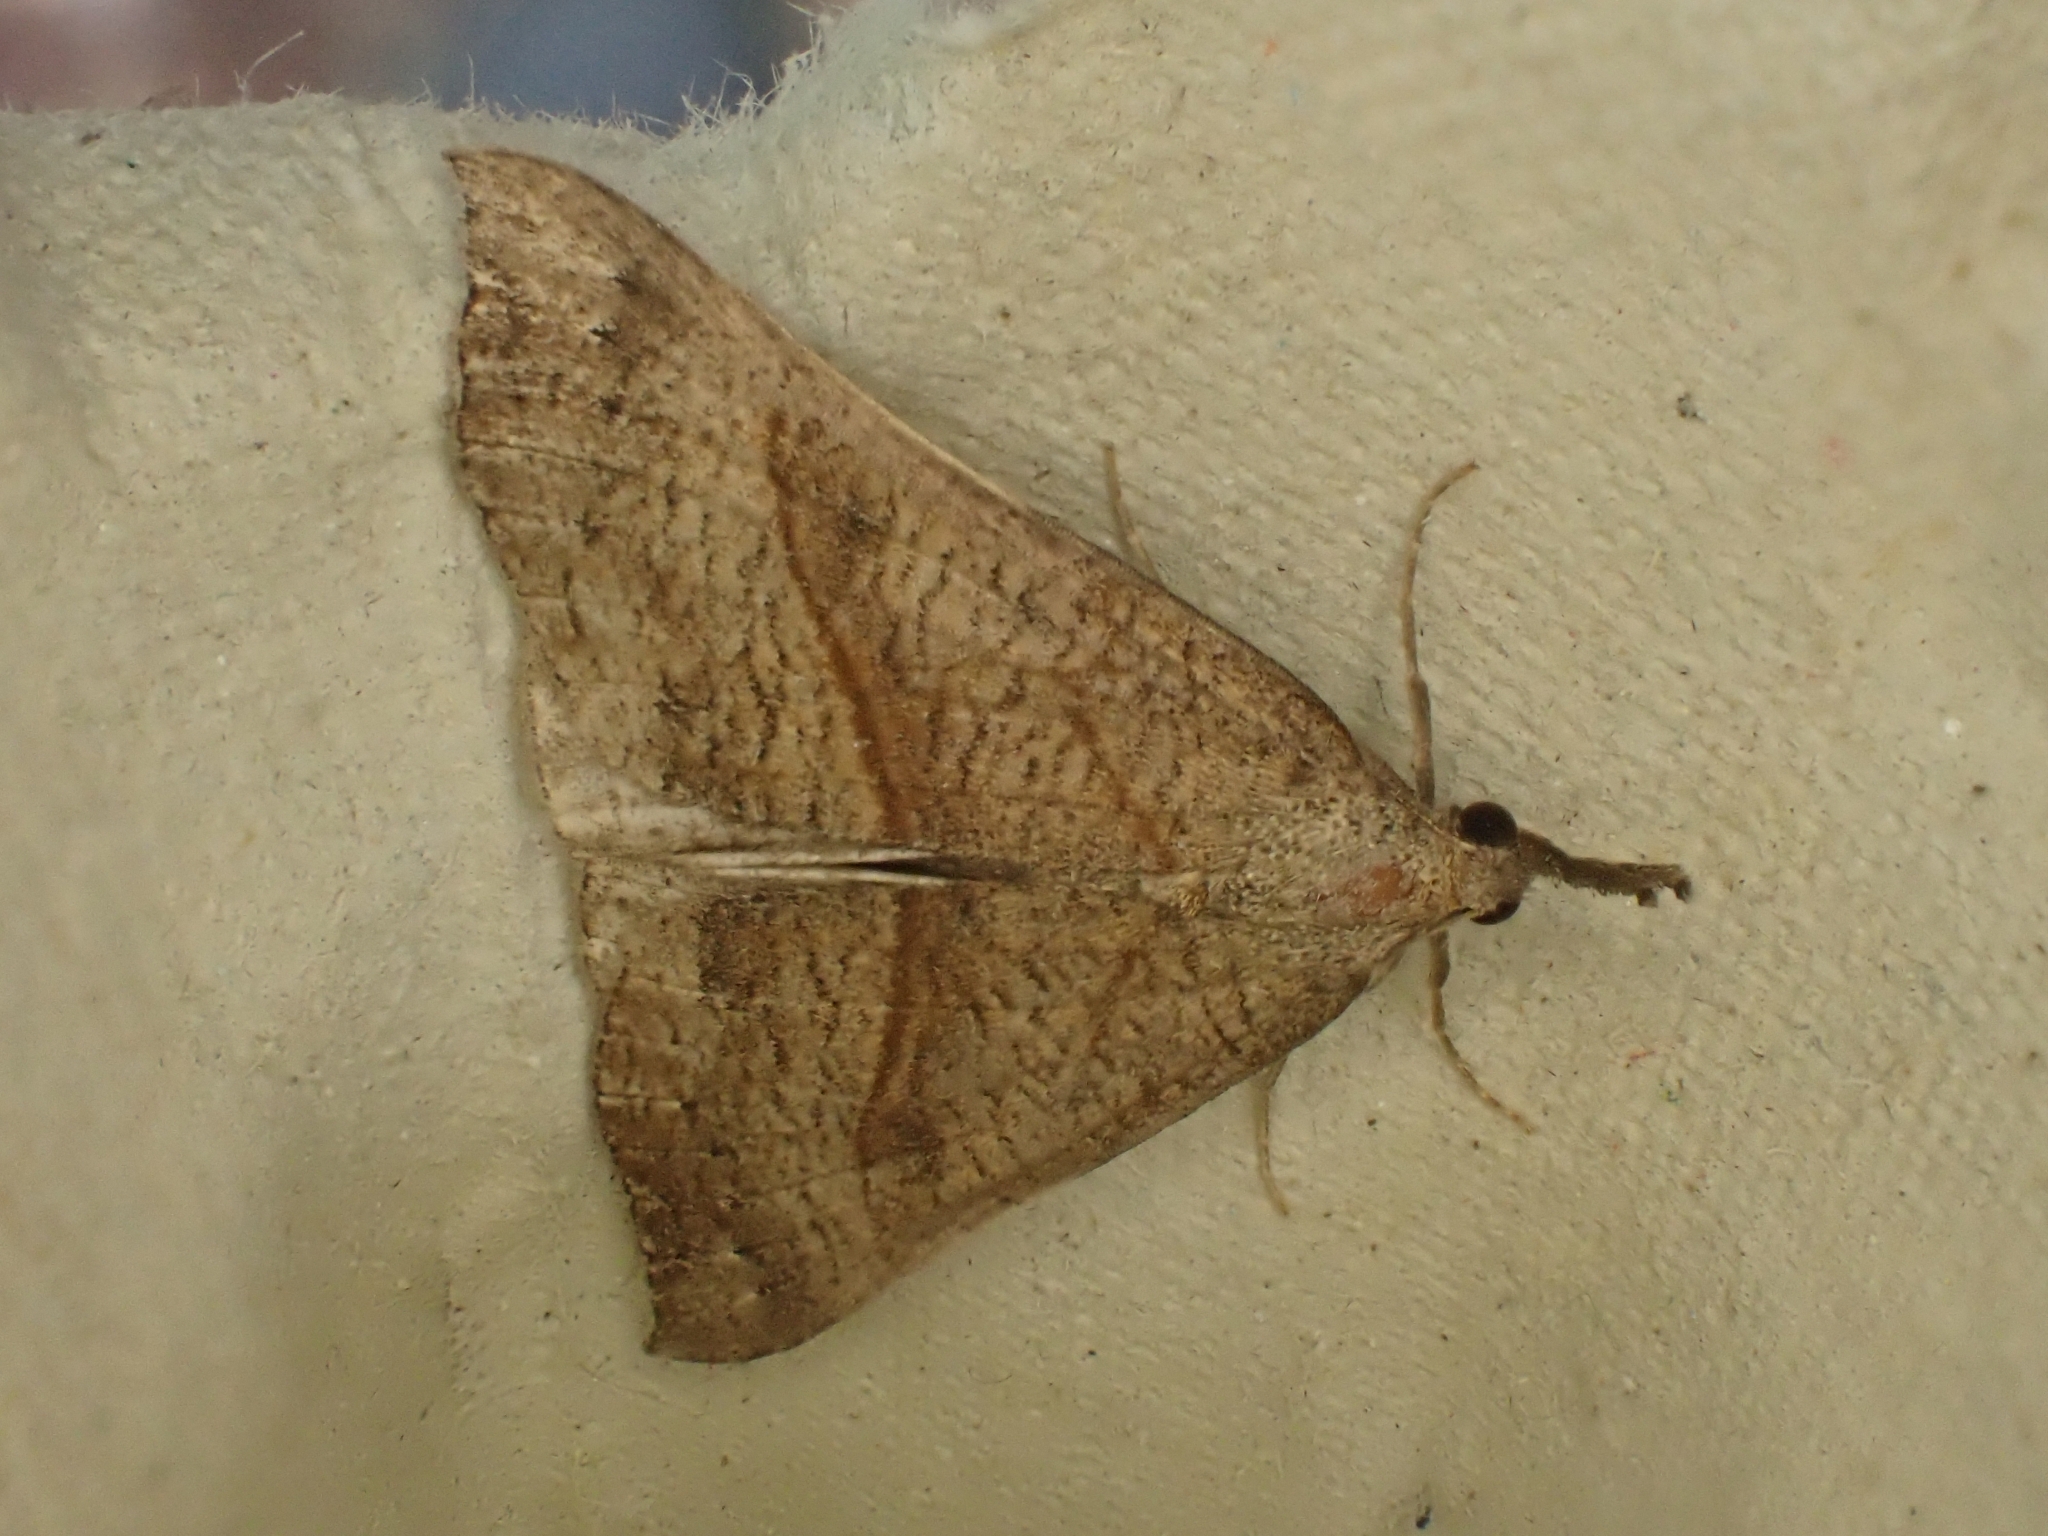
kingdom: Animalia
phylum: Arthropoda
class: Insecta
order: Lepidoptera
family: Erebidae
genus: Hypena
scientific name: Hypena proboscidalis
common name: Snout
